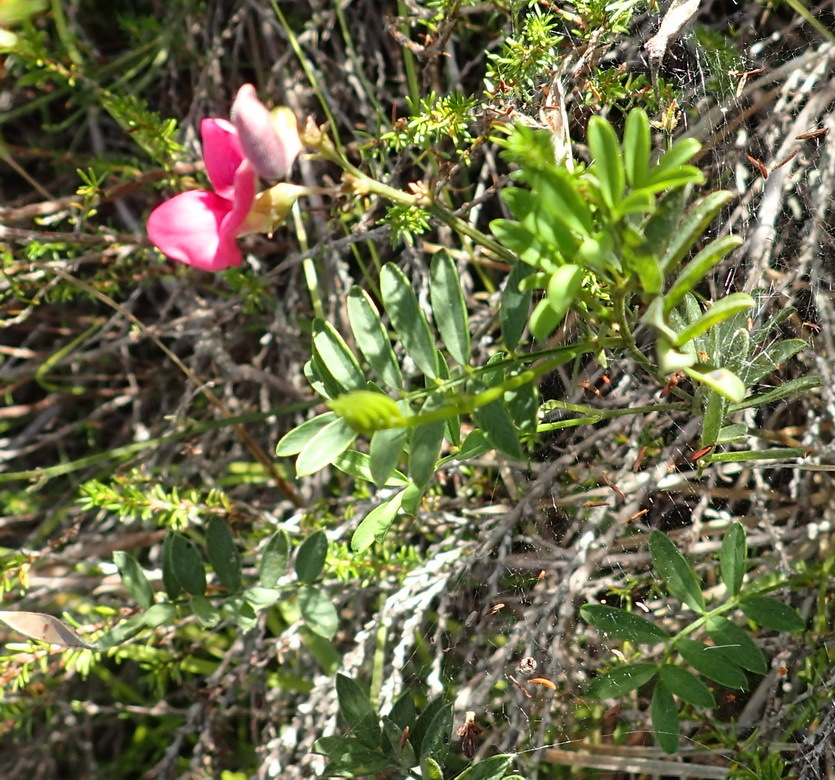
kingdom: Plantae
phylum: Tracheophyta
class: Magnoliopsida
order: Fabales
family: Fabaceae
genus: Tephrosia
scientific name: Tephrosia capensis
